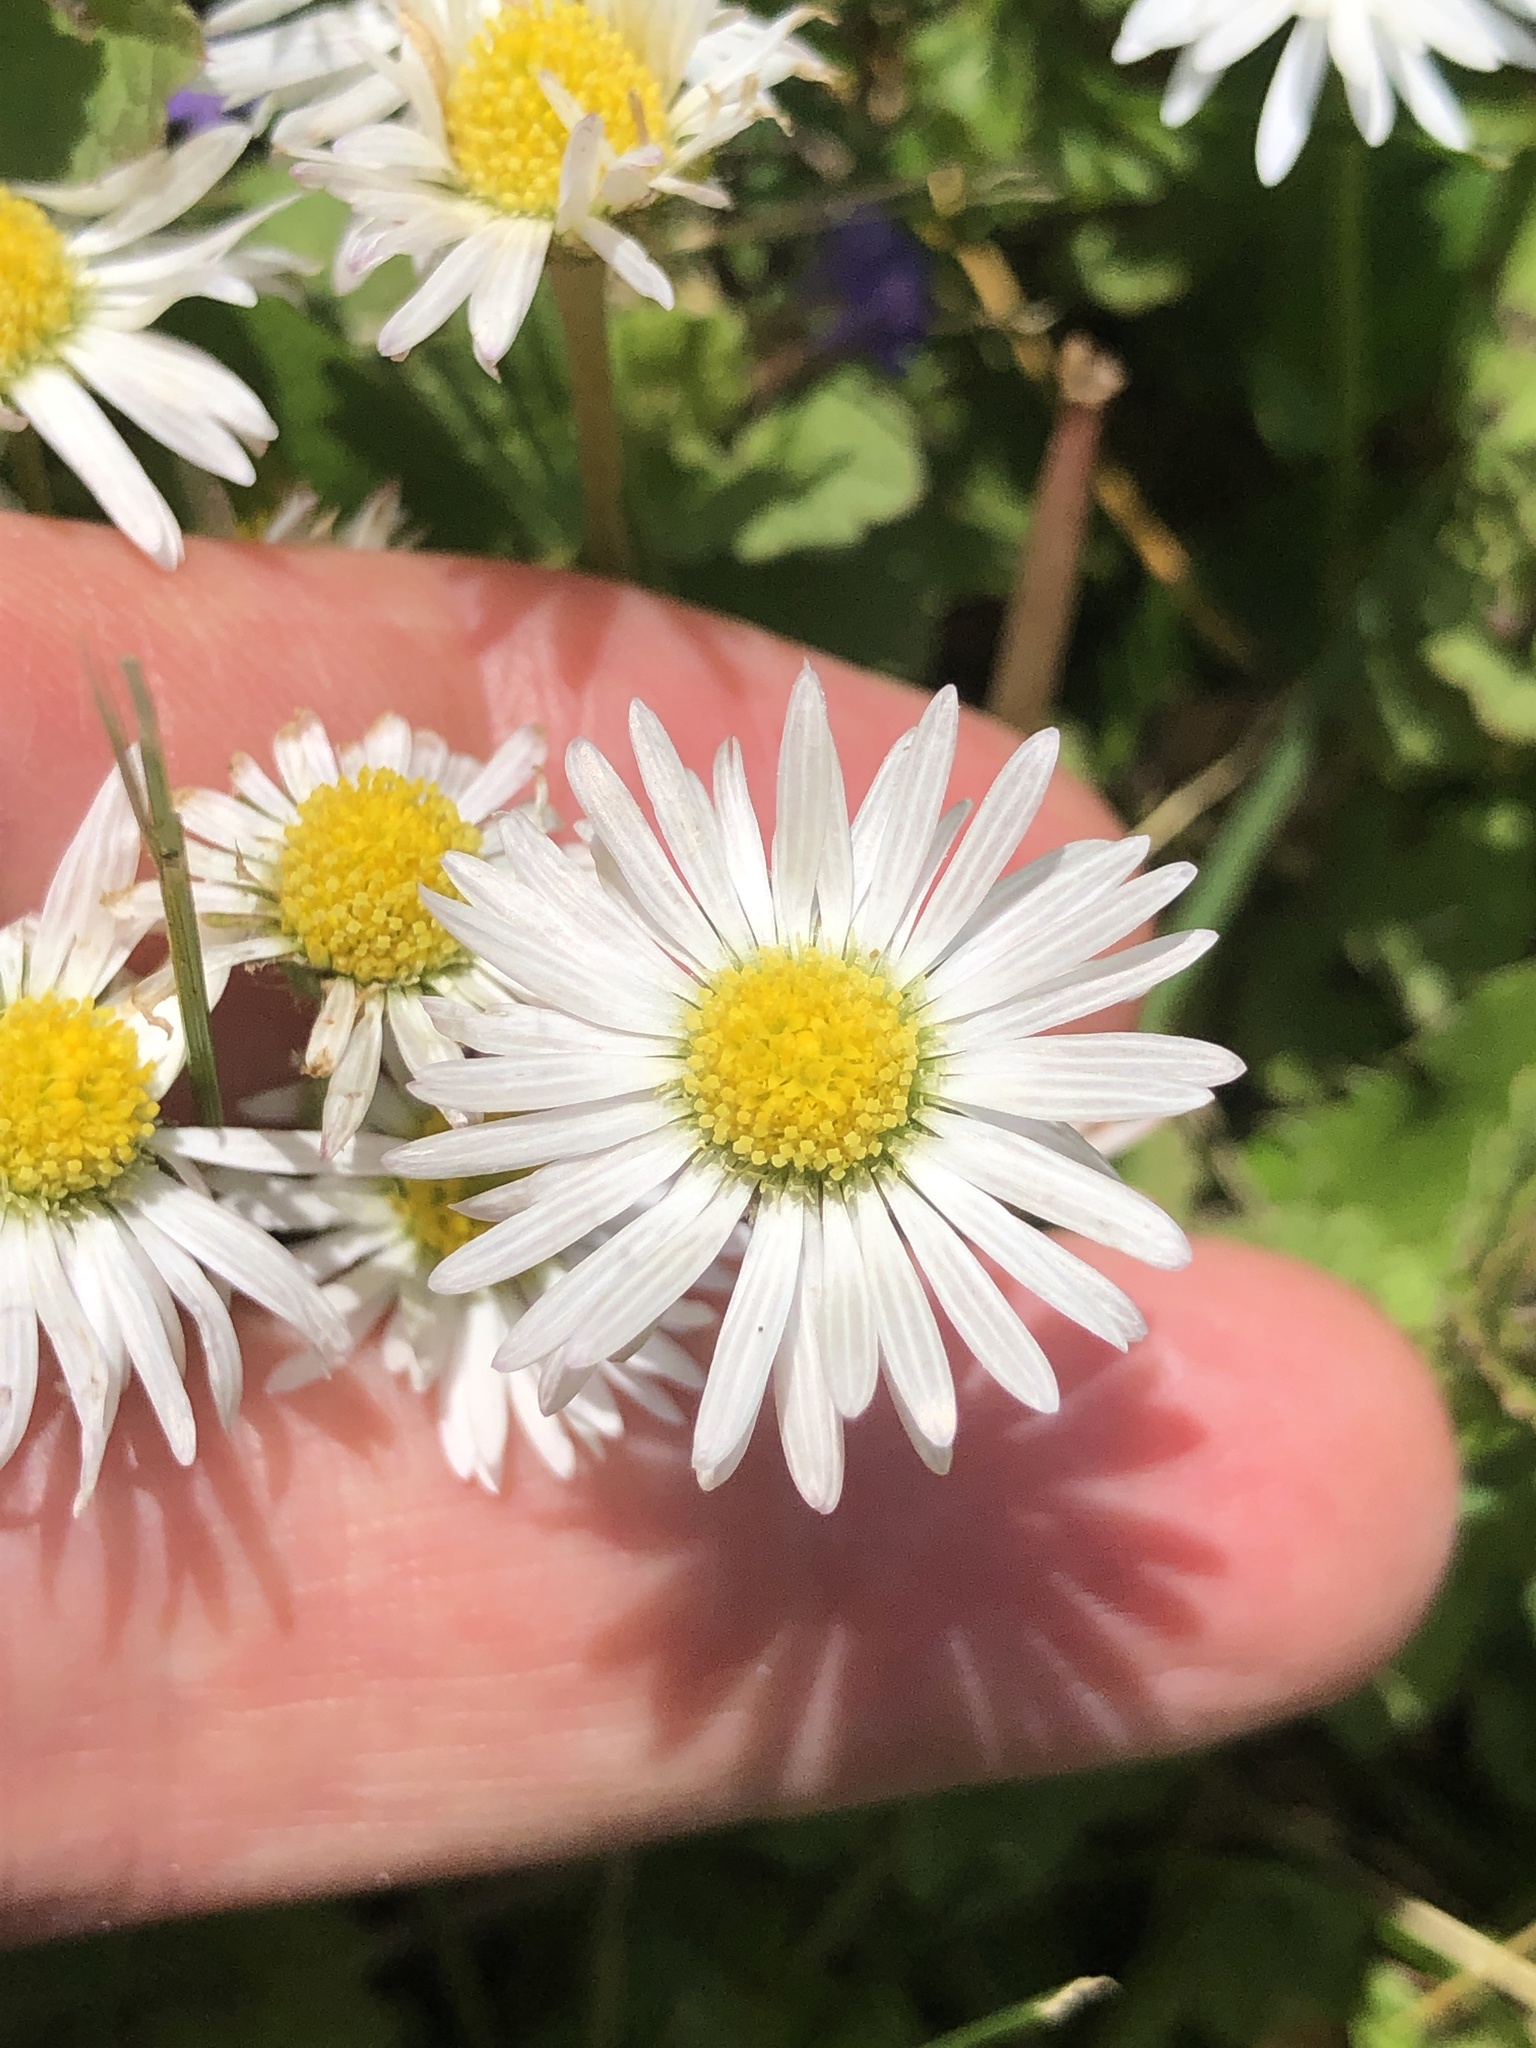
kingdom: Plantae
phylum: Tracheophyta
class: Magnoliopsida
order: Asterales
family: Asteraceae
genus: Bellis
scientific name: Bellis perennis
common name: Lawndaisy
